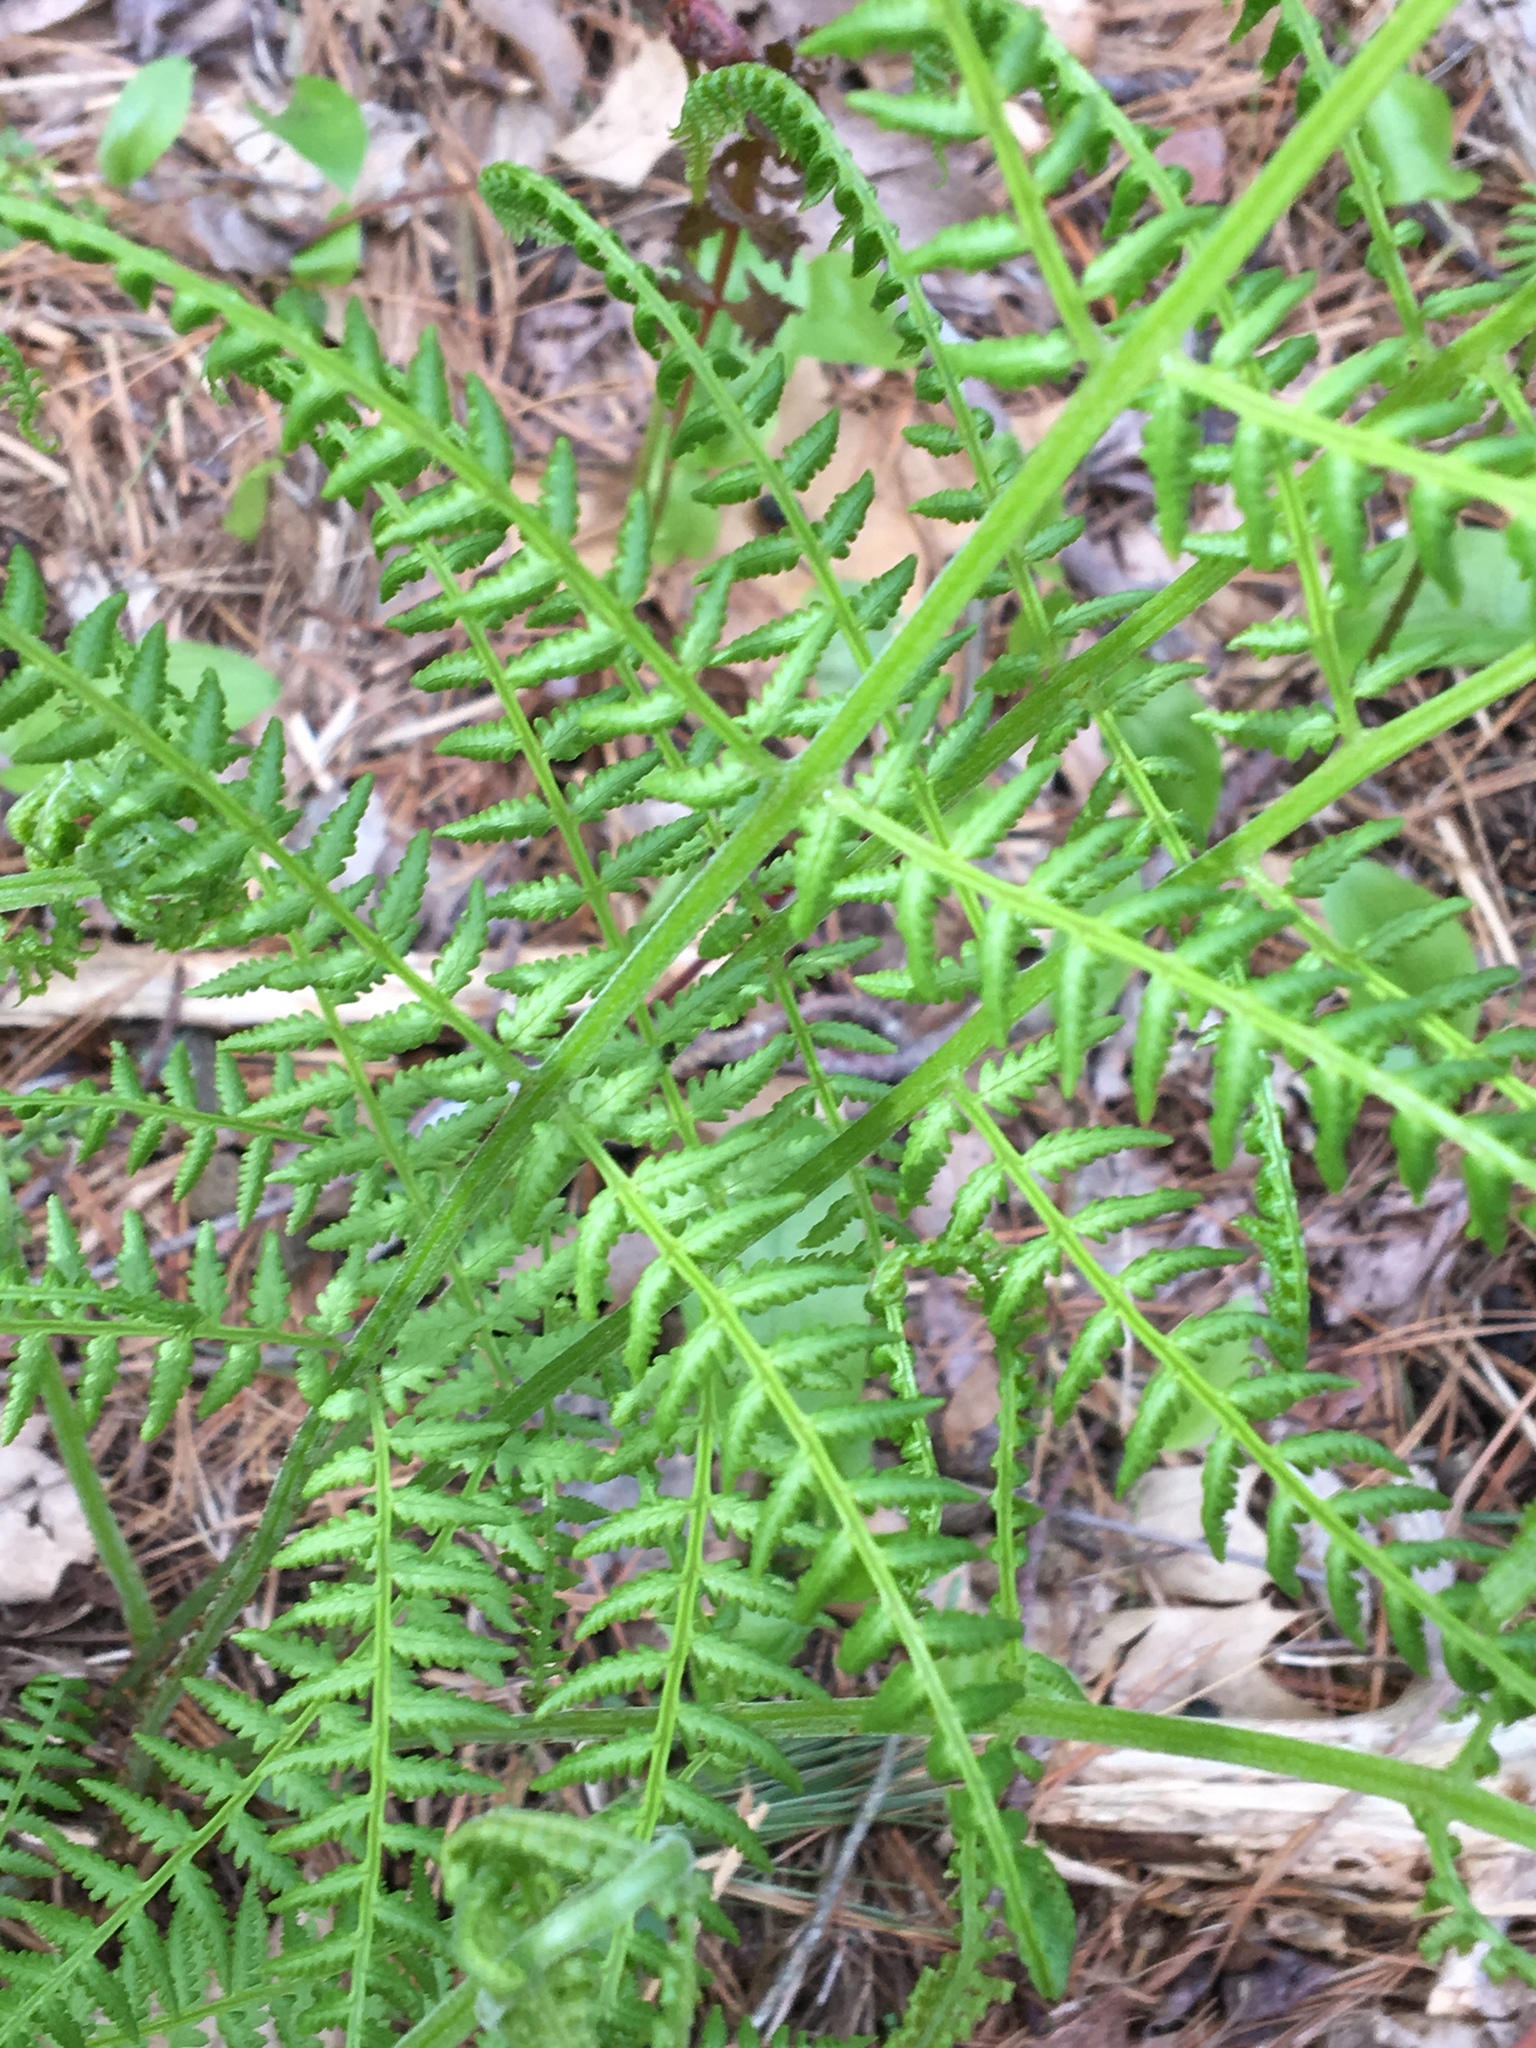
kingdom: Plantae
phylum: Tracheophyta
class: Polypodiopsida
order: Polypodiales
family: Athyriaceae
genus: Athyrium
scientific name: Athyrium angustum
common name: Northern lady fern
